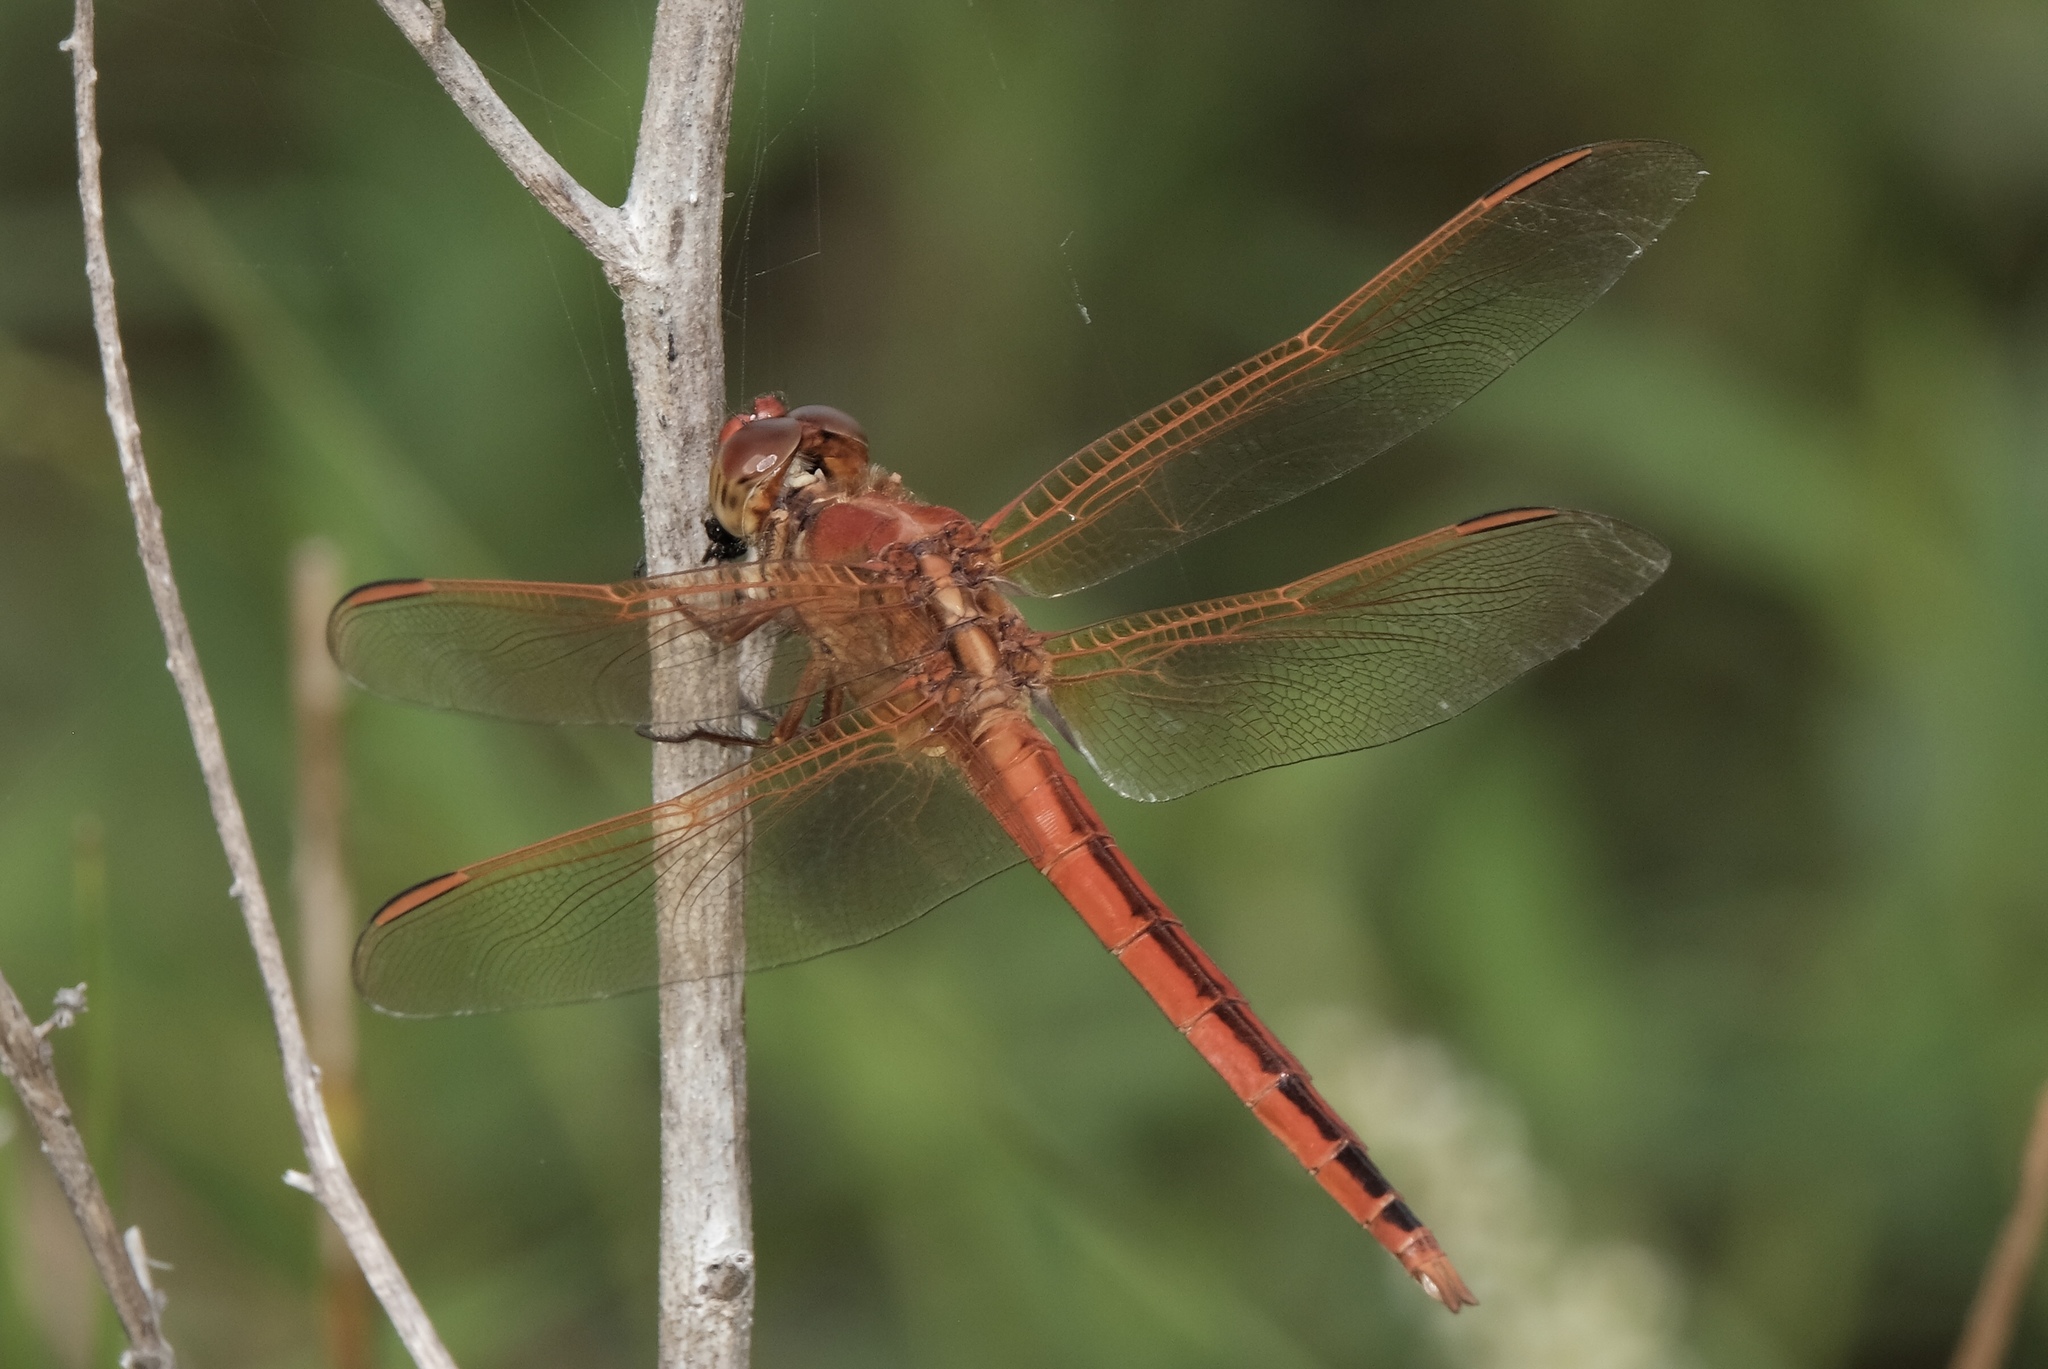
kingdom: Animalia
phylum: Arthropoda
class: Insecta
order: Odonata
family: Libellulidae
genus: Libellula
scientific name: Libellula needhami
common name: Needham's skimmer
